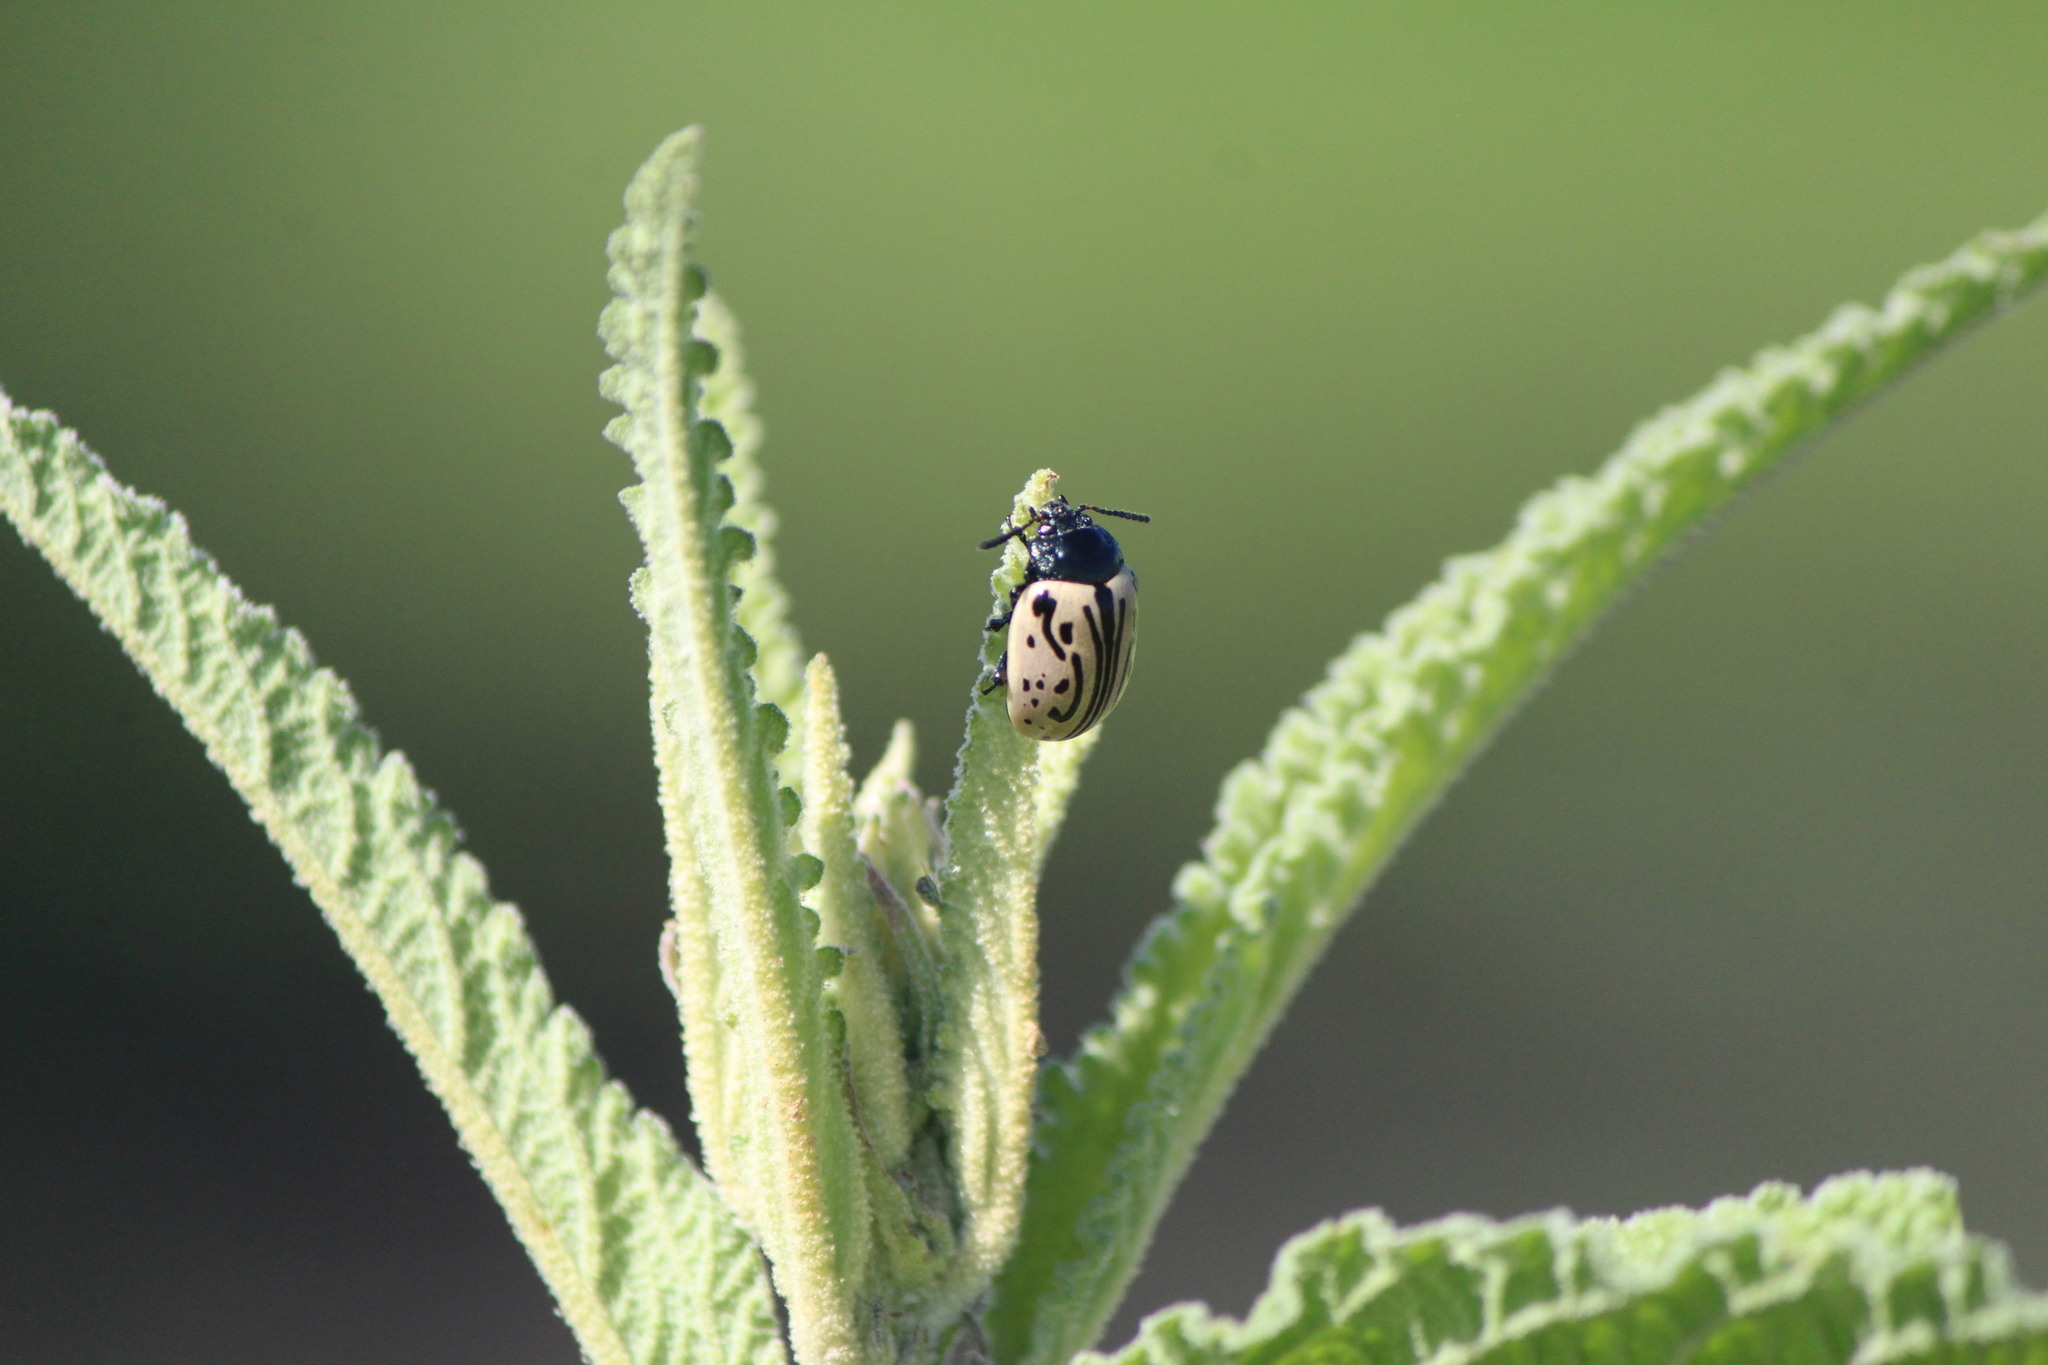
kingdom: Animalia
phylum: Arthropoda
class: Insecta
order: Coleoptera
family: Chrysomelidae
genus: Calligrapha
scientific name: Calligrapha dislocata
